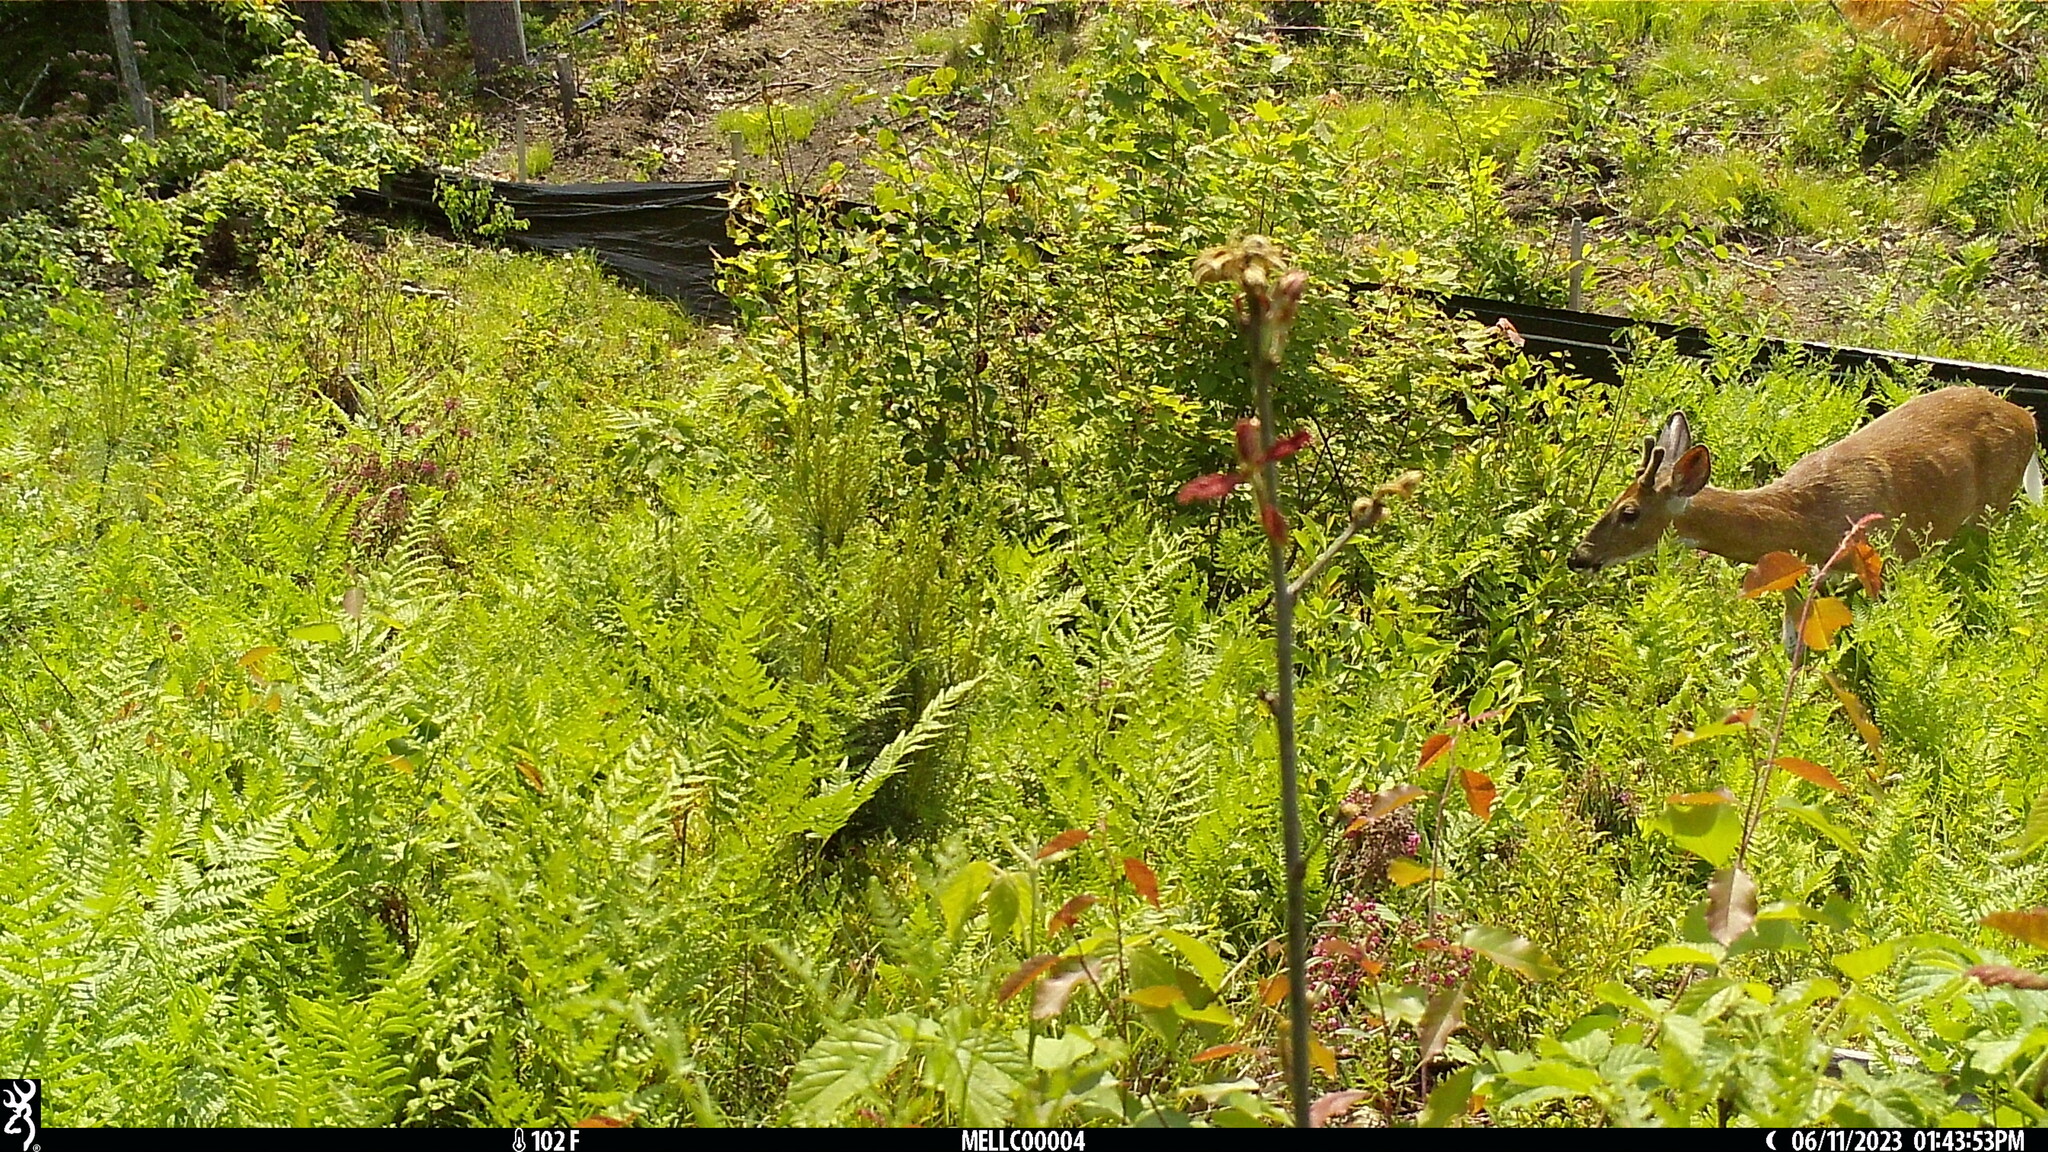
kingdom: Animalia
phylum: Chordata
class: Mammalia
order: Artiodactyla
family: Cervidae
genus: Odocoileus
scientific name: Odocoileus virginianus
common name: White-tailed deer
